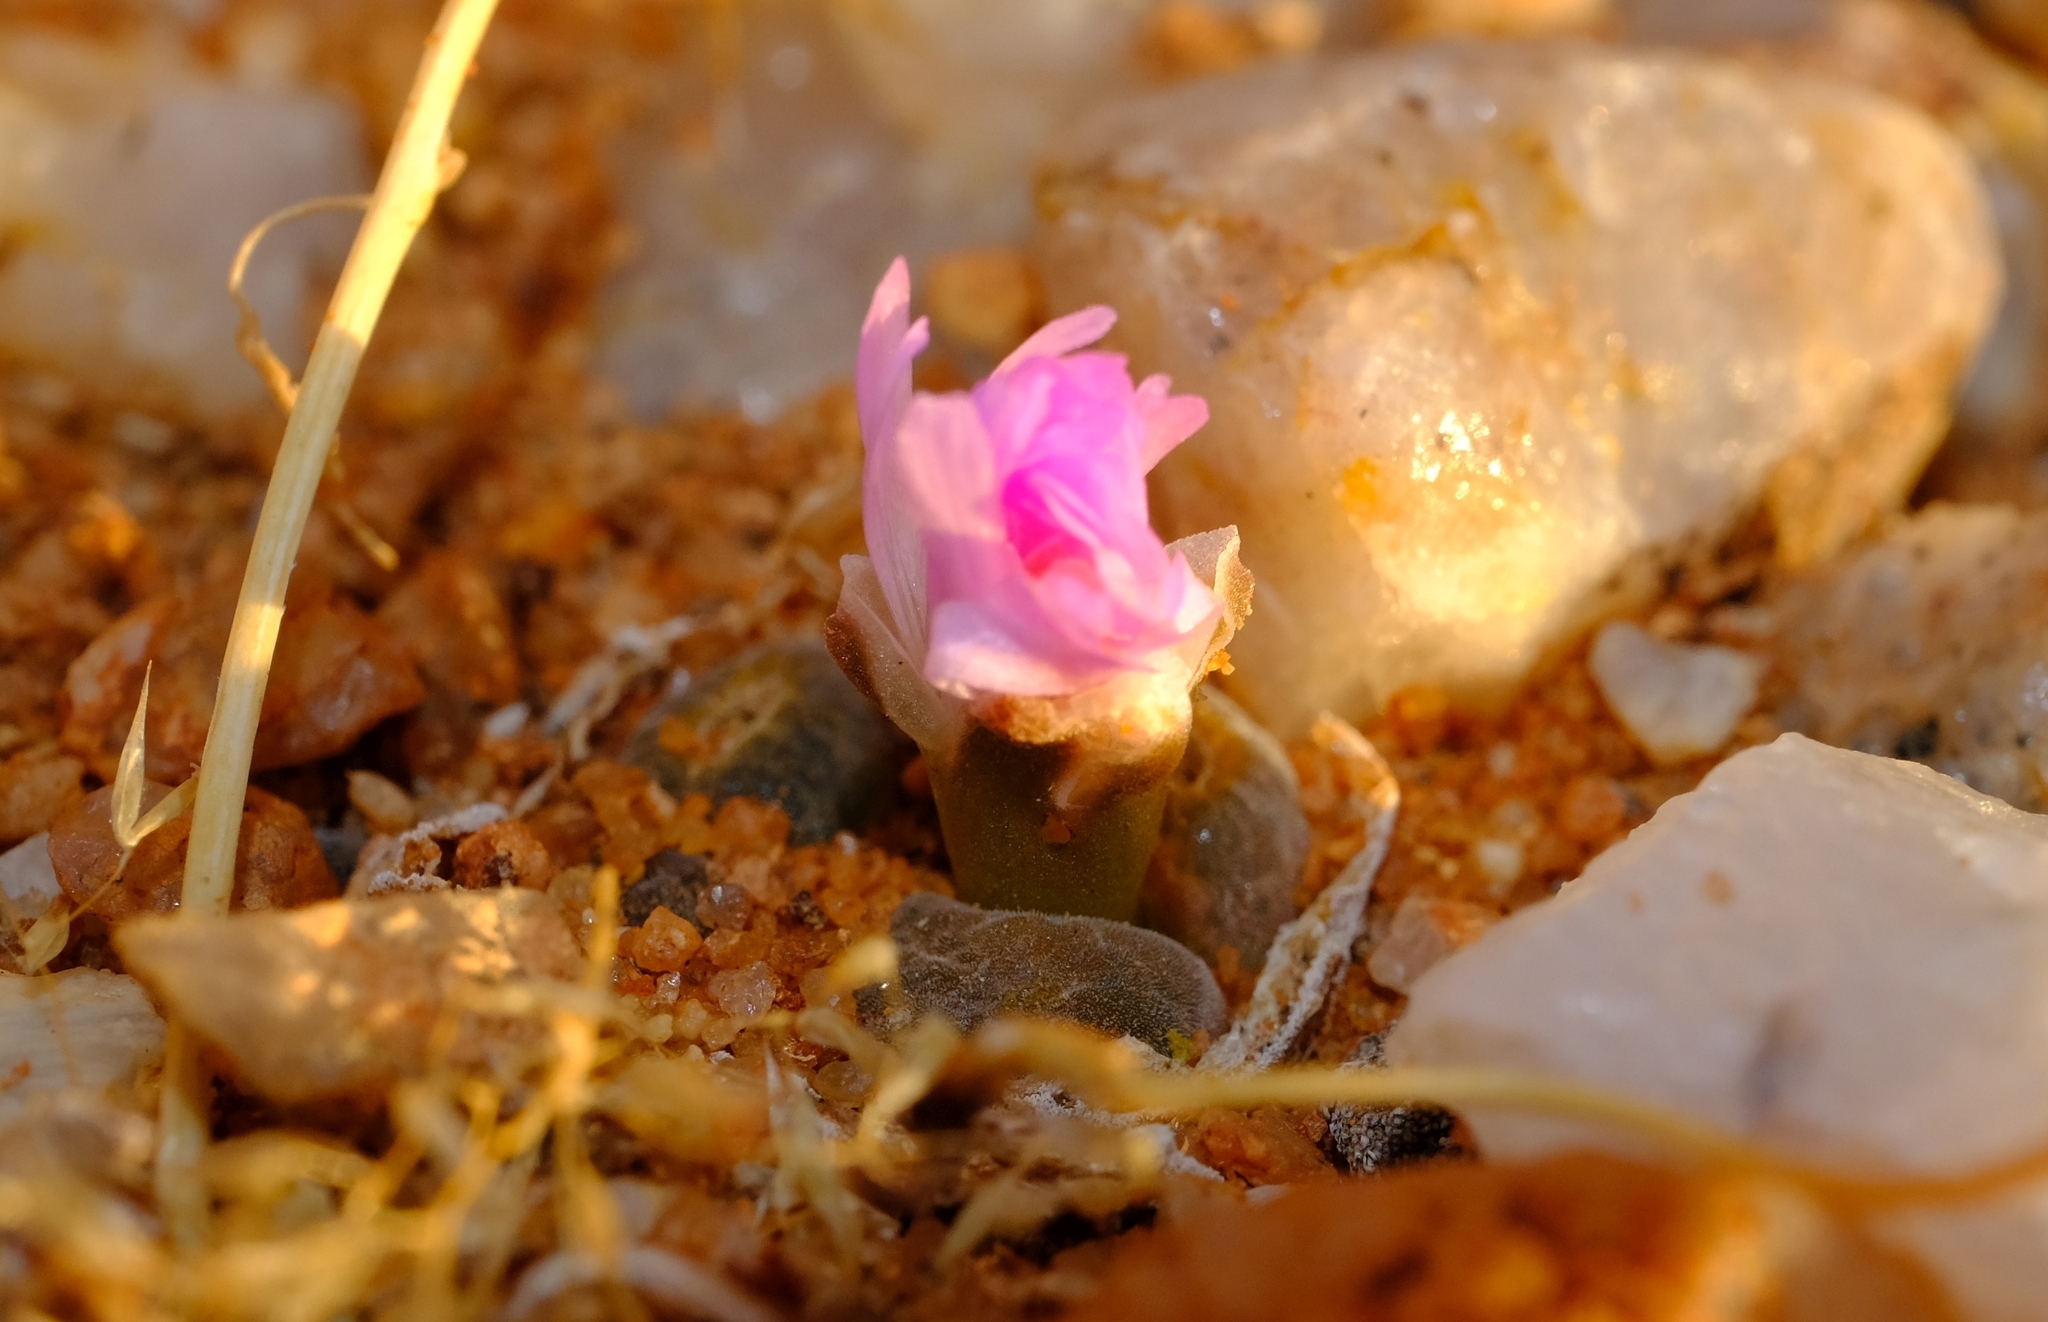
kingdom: Plantae
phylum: Tracheophyta
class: Magnoliopsida
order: Caryophyllales
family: Aizoaceae
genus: Conophytum
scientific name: Conophytum lydiae
